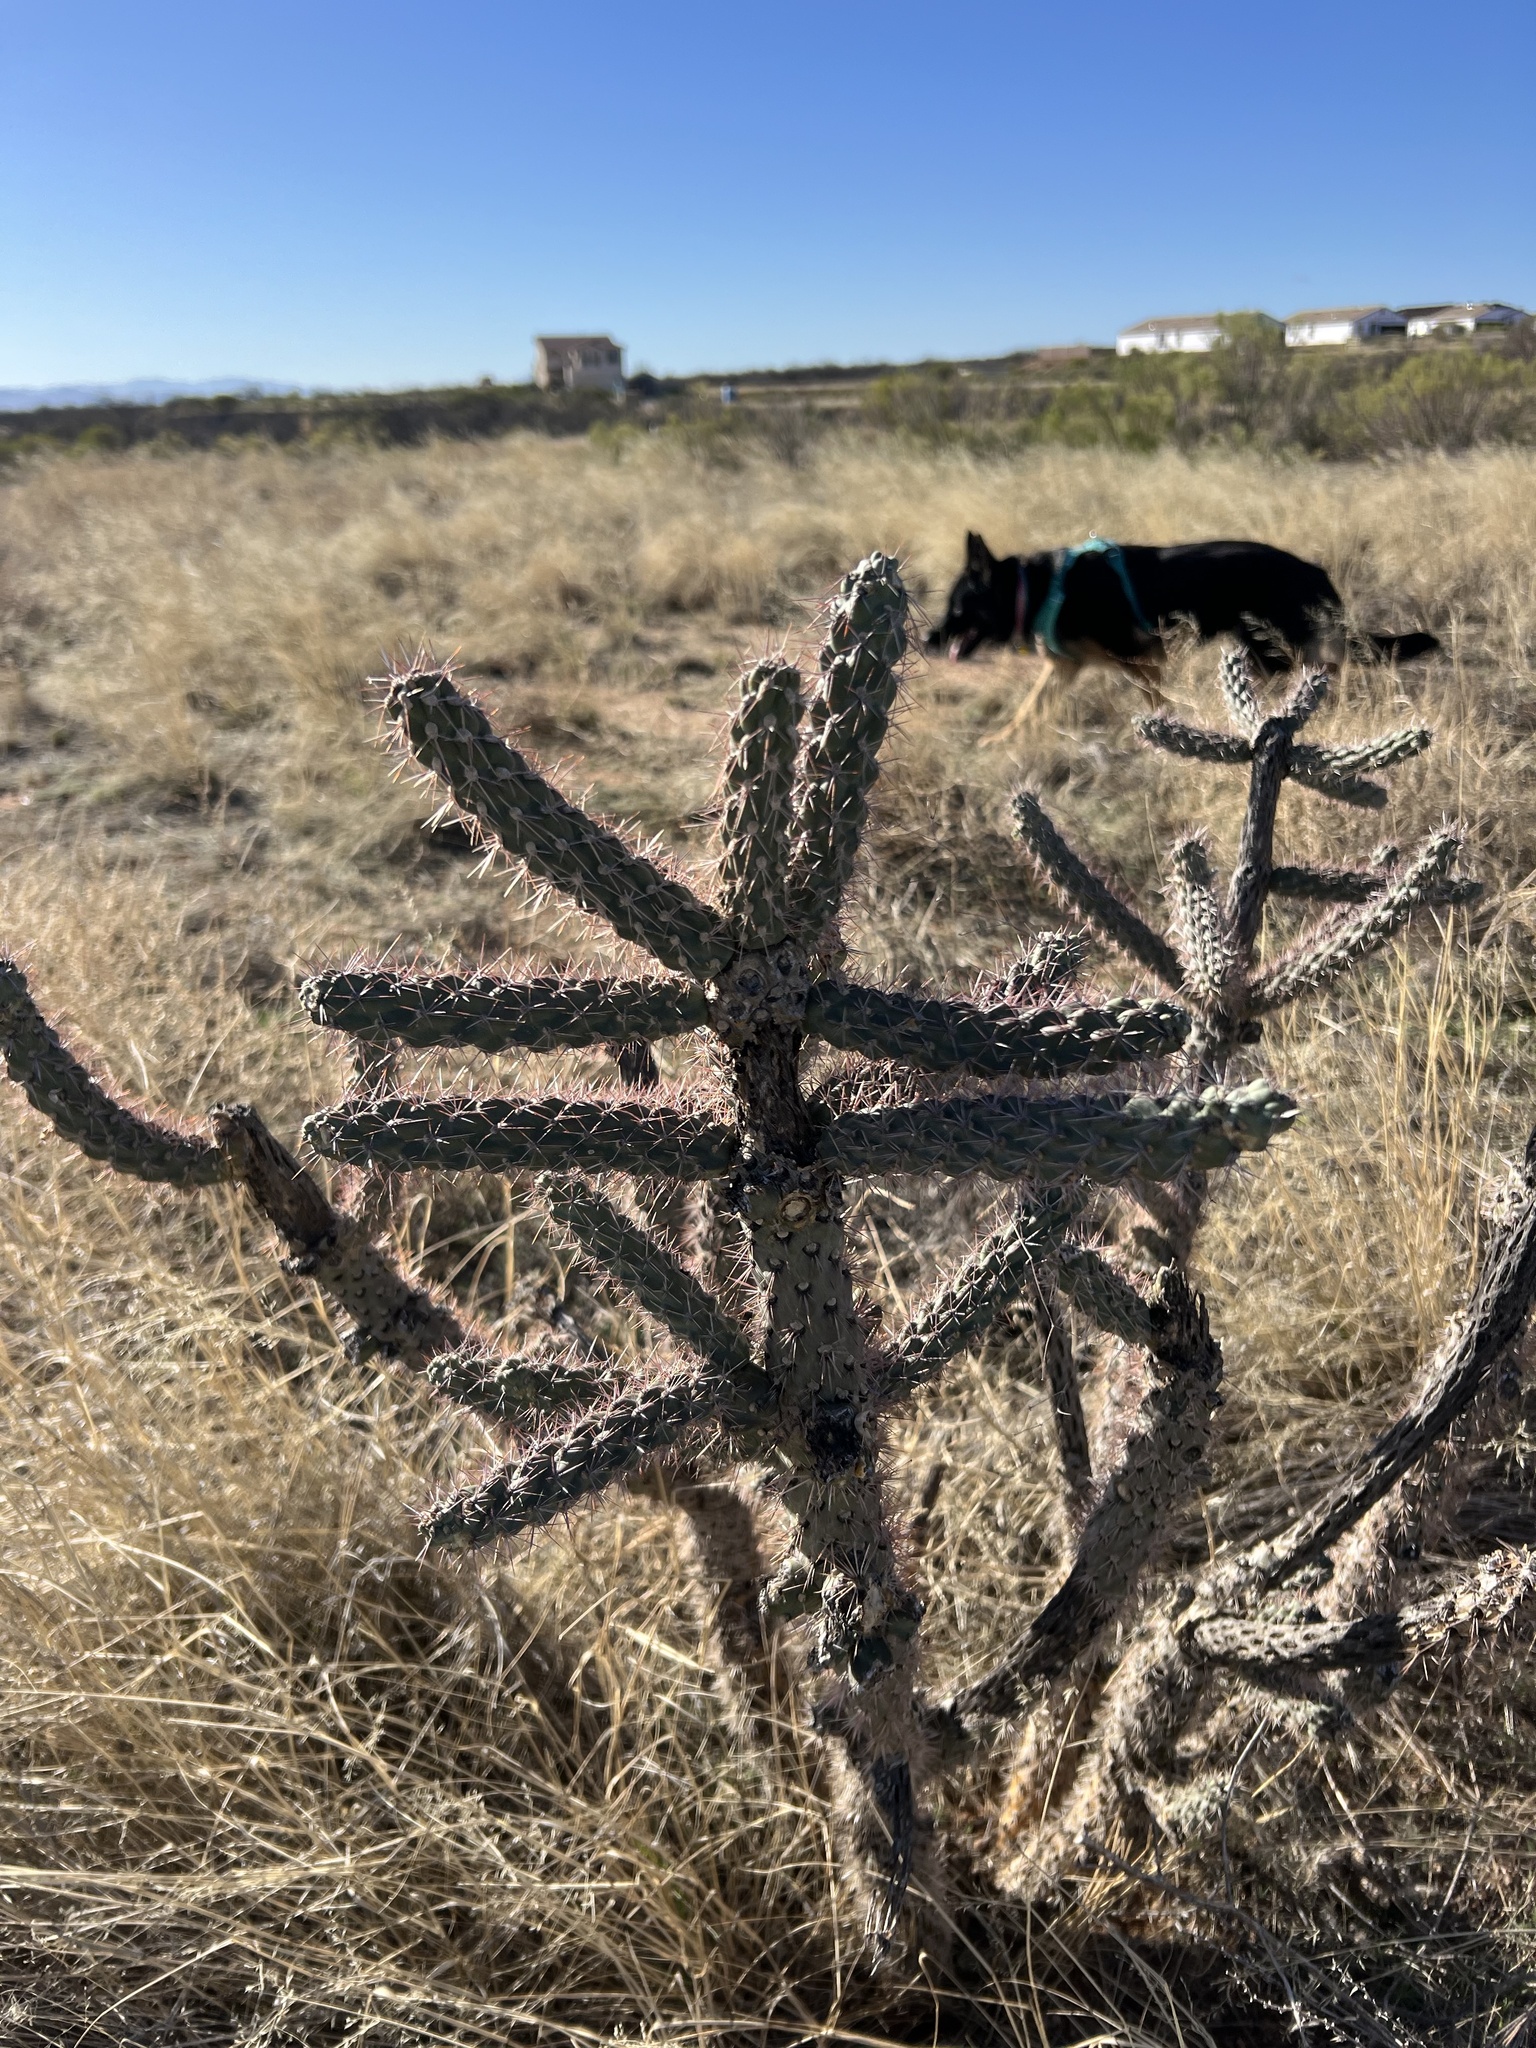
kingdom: Plantae
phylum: Tracheophyta
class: Magnoliopsida
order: Caryophyllales
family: Cactaceae
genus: Cylindropuntia
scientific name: Cylindropuntia imbricata
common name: Candelabrum cactus
